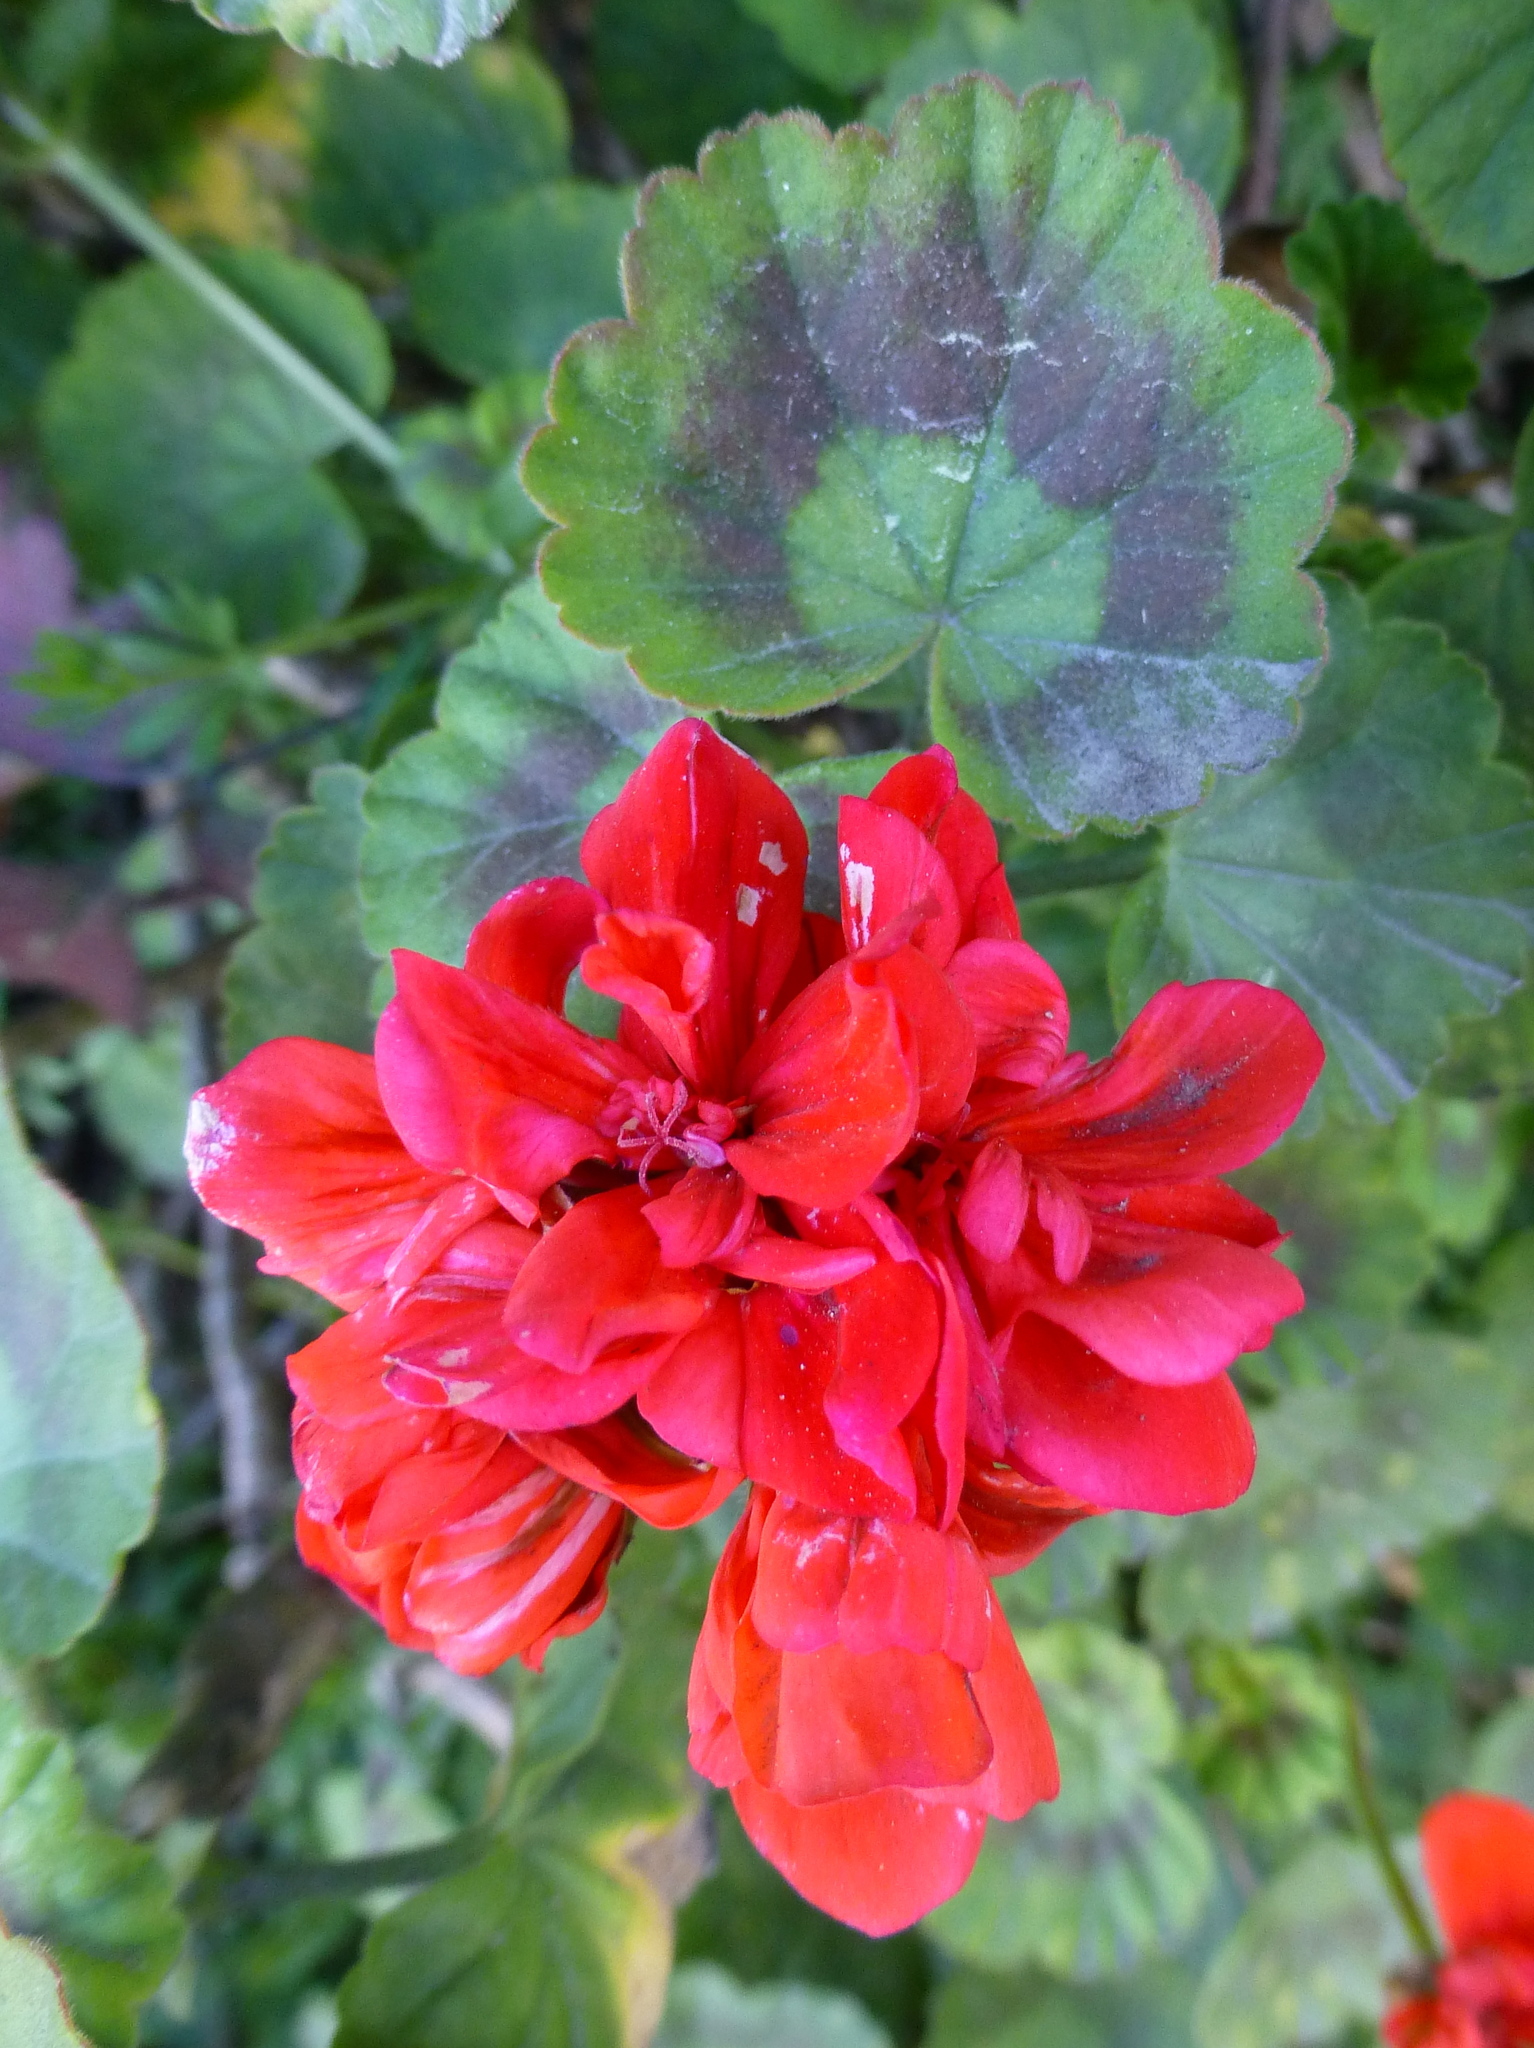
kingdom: Plantae
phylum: Tracheophyta
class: Magnoliopsida
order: Geraniales
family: Geraniaceae
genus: Pelargonium
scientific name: Pelargonium hybridum
